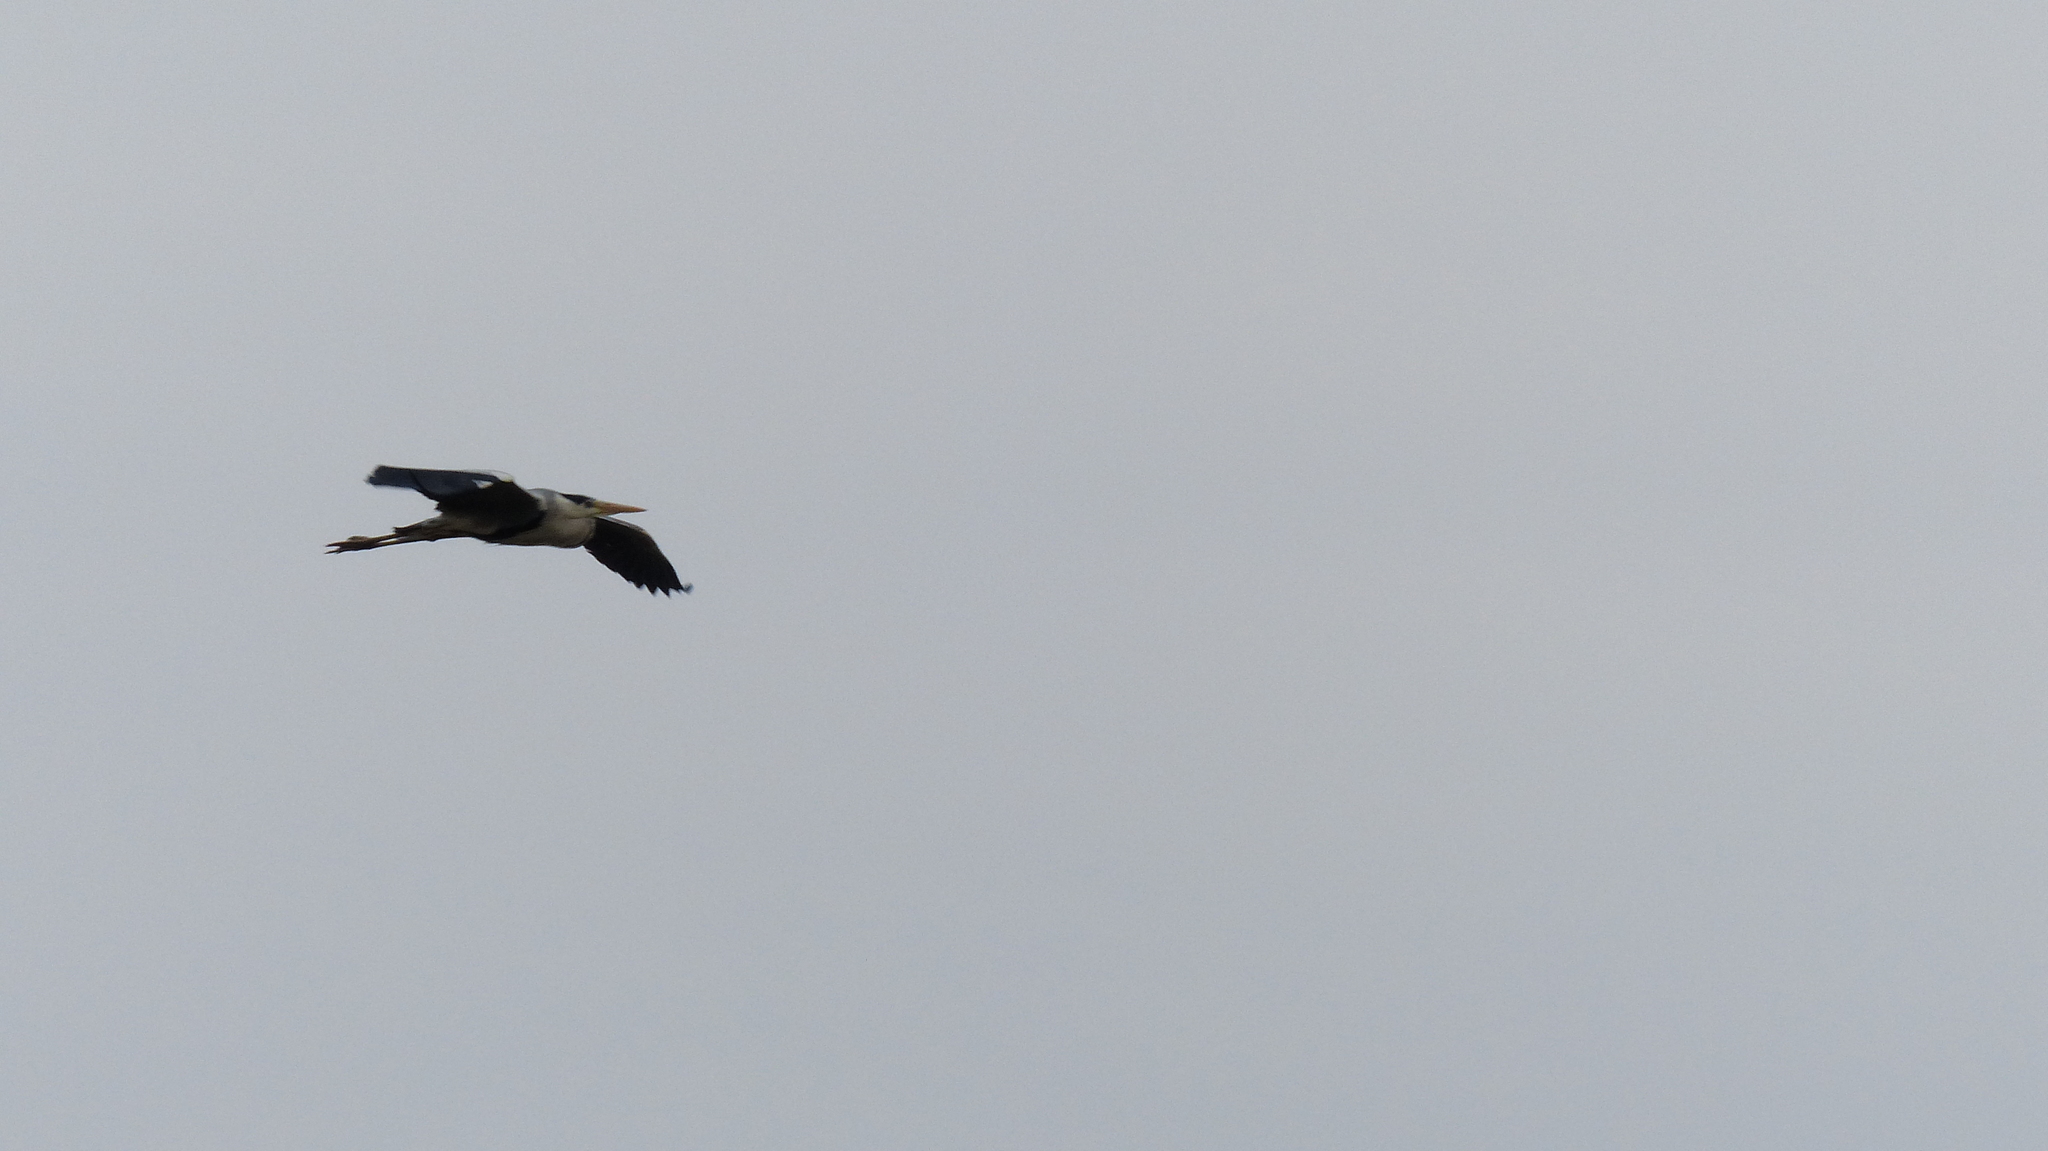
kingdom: Animalia
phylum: Chordata
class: Aves
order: Pelecaniformes
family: Ardeidae
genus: Ardea
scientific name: Ardea cinerea
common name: Grey heron
